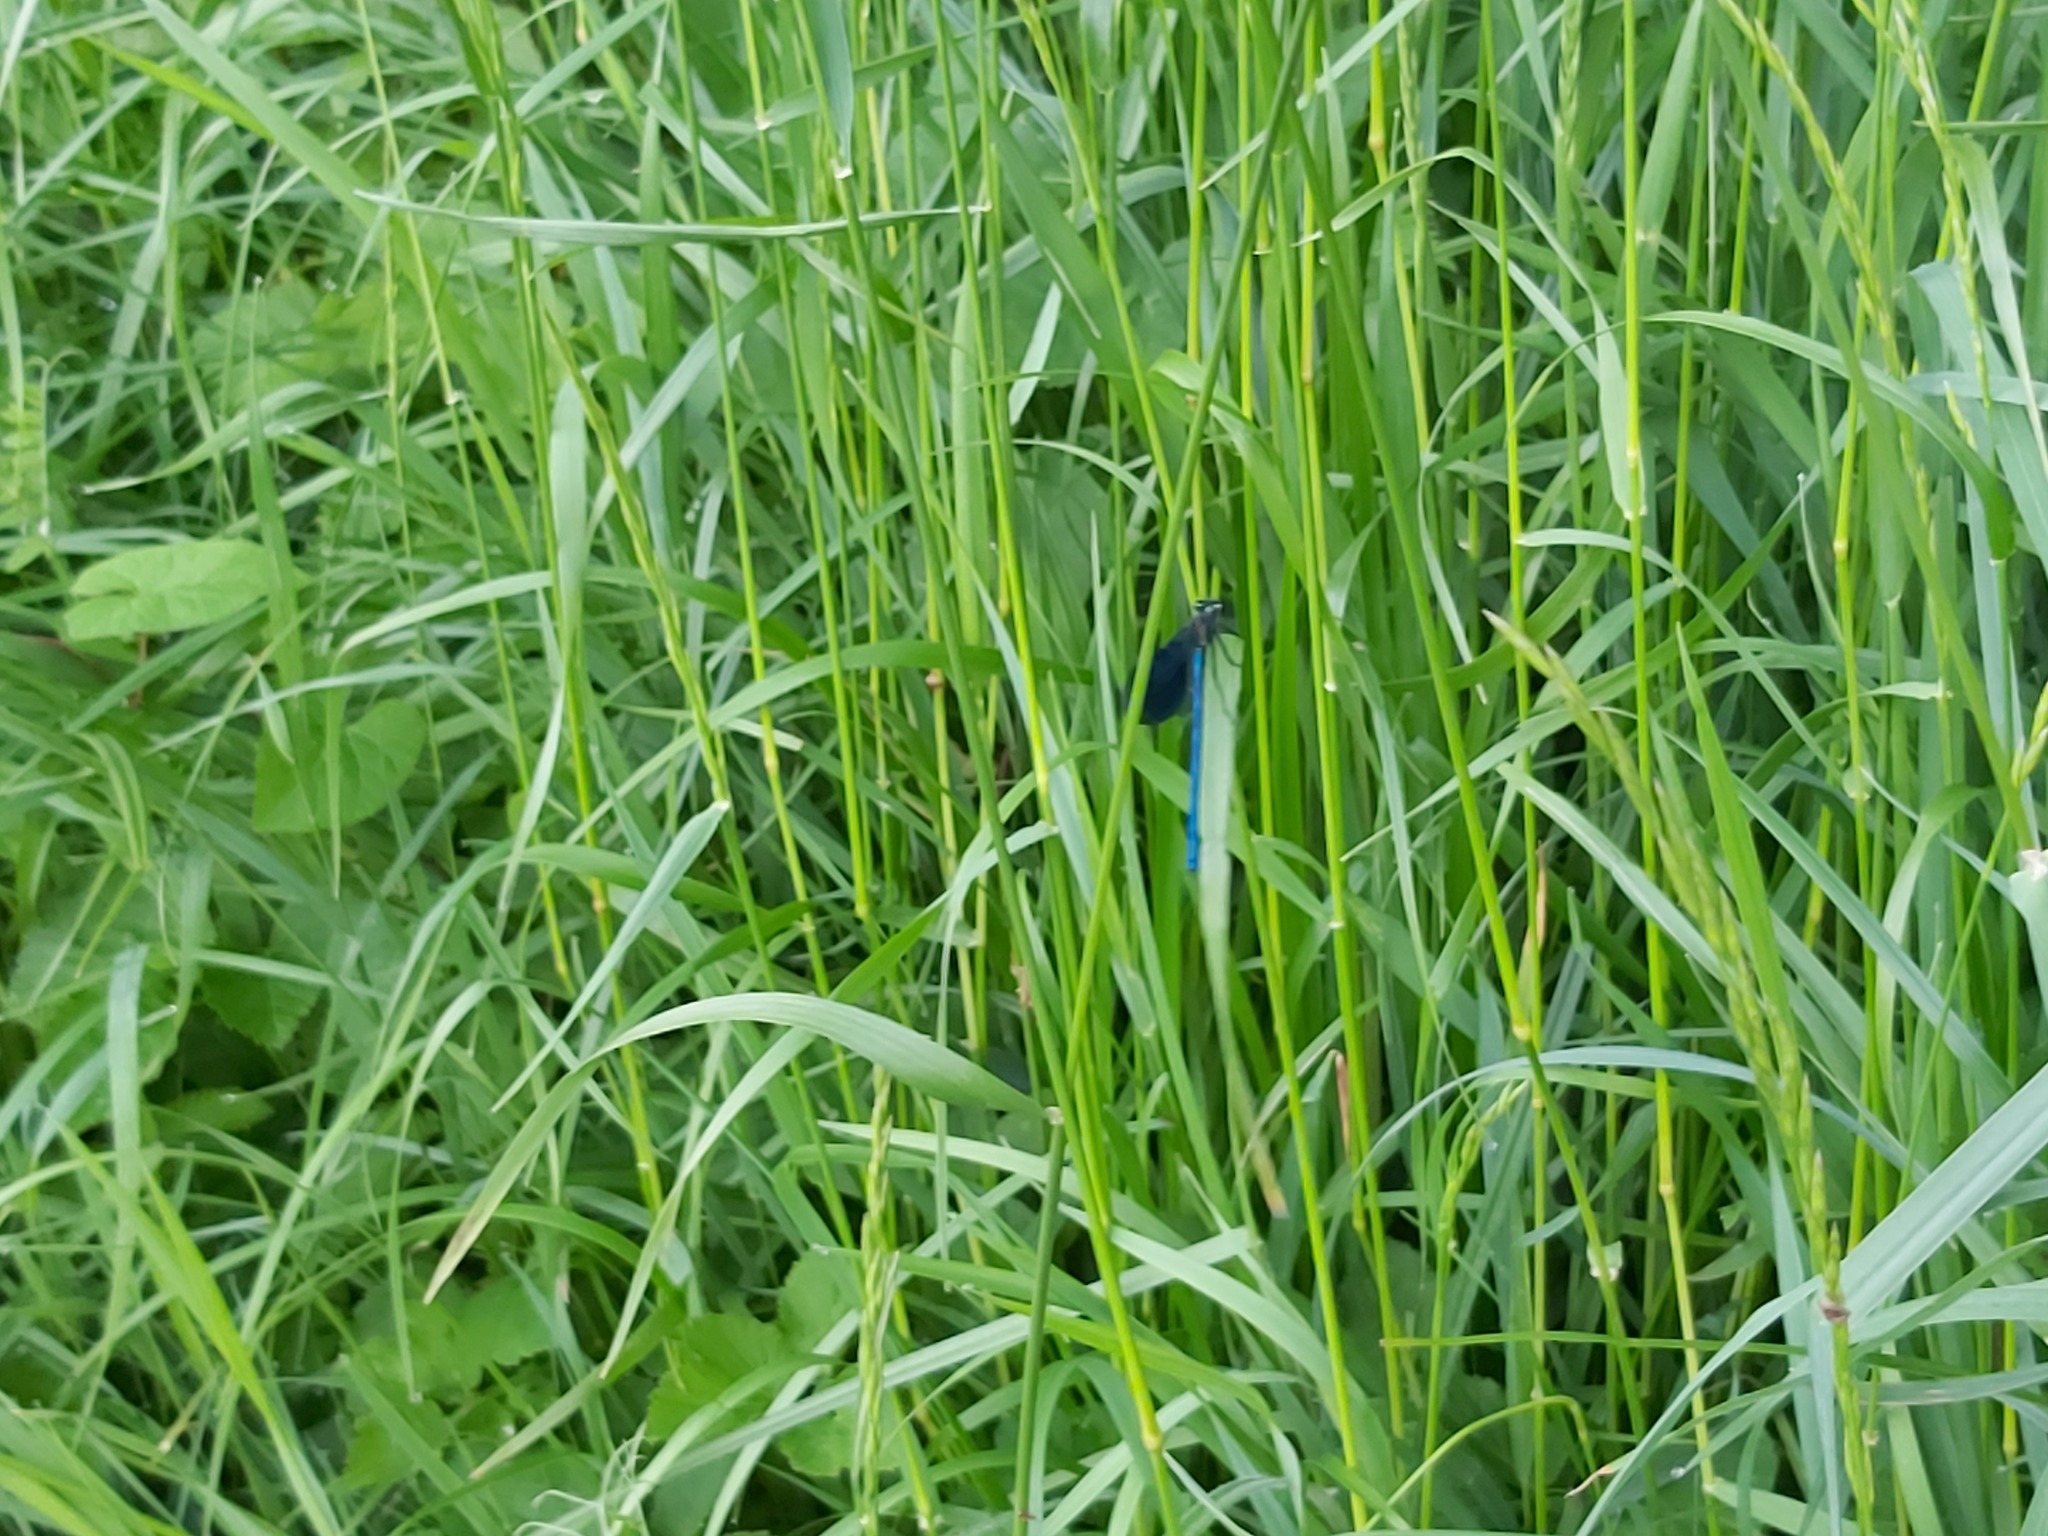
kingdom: Animalia
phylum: Arthropoda
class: Insecta
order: Odonata
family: Calopterygidae
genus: Calopteryx
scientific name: Calopteryx splendens
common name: Banded demoiselle
